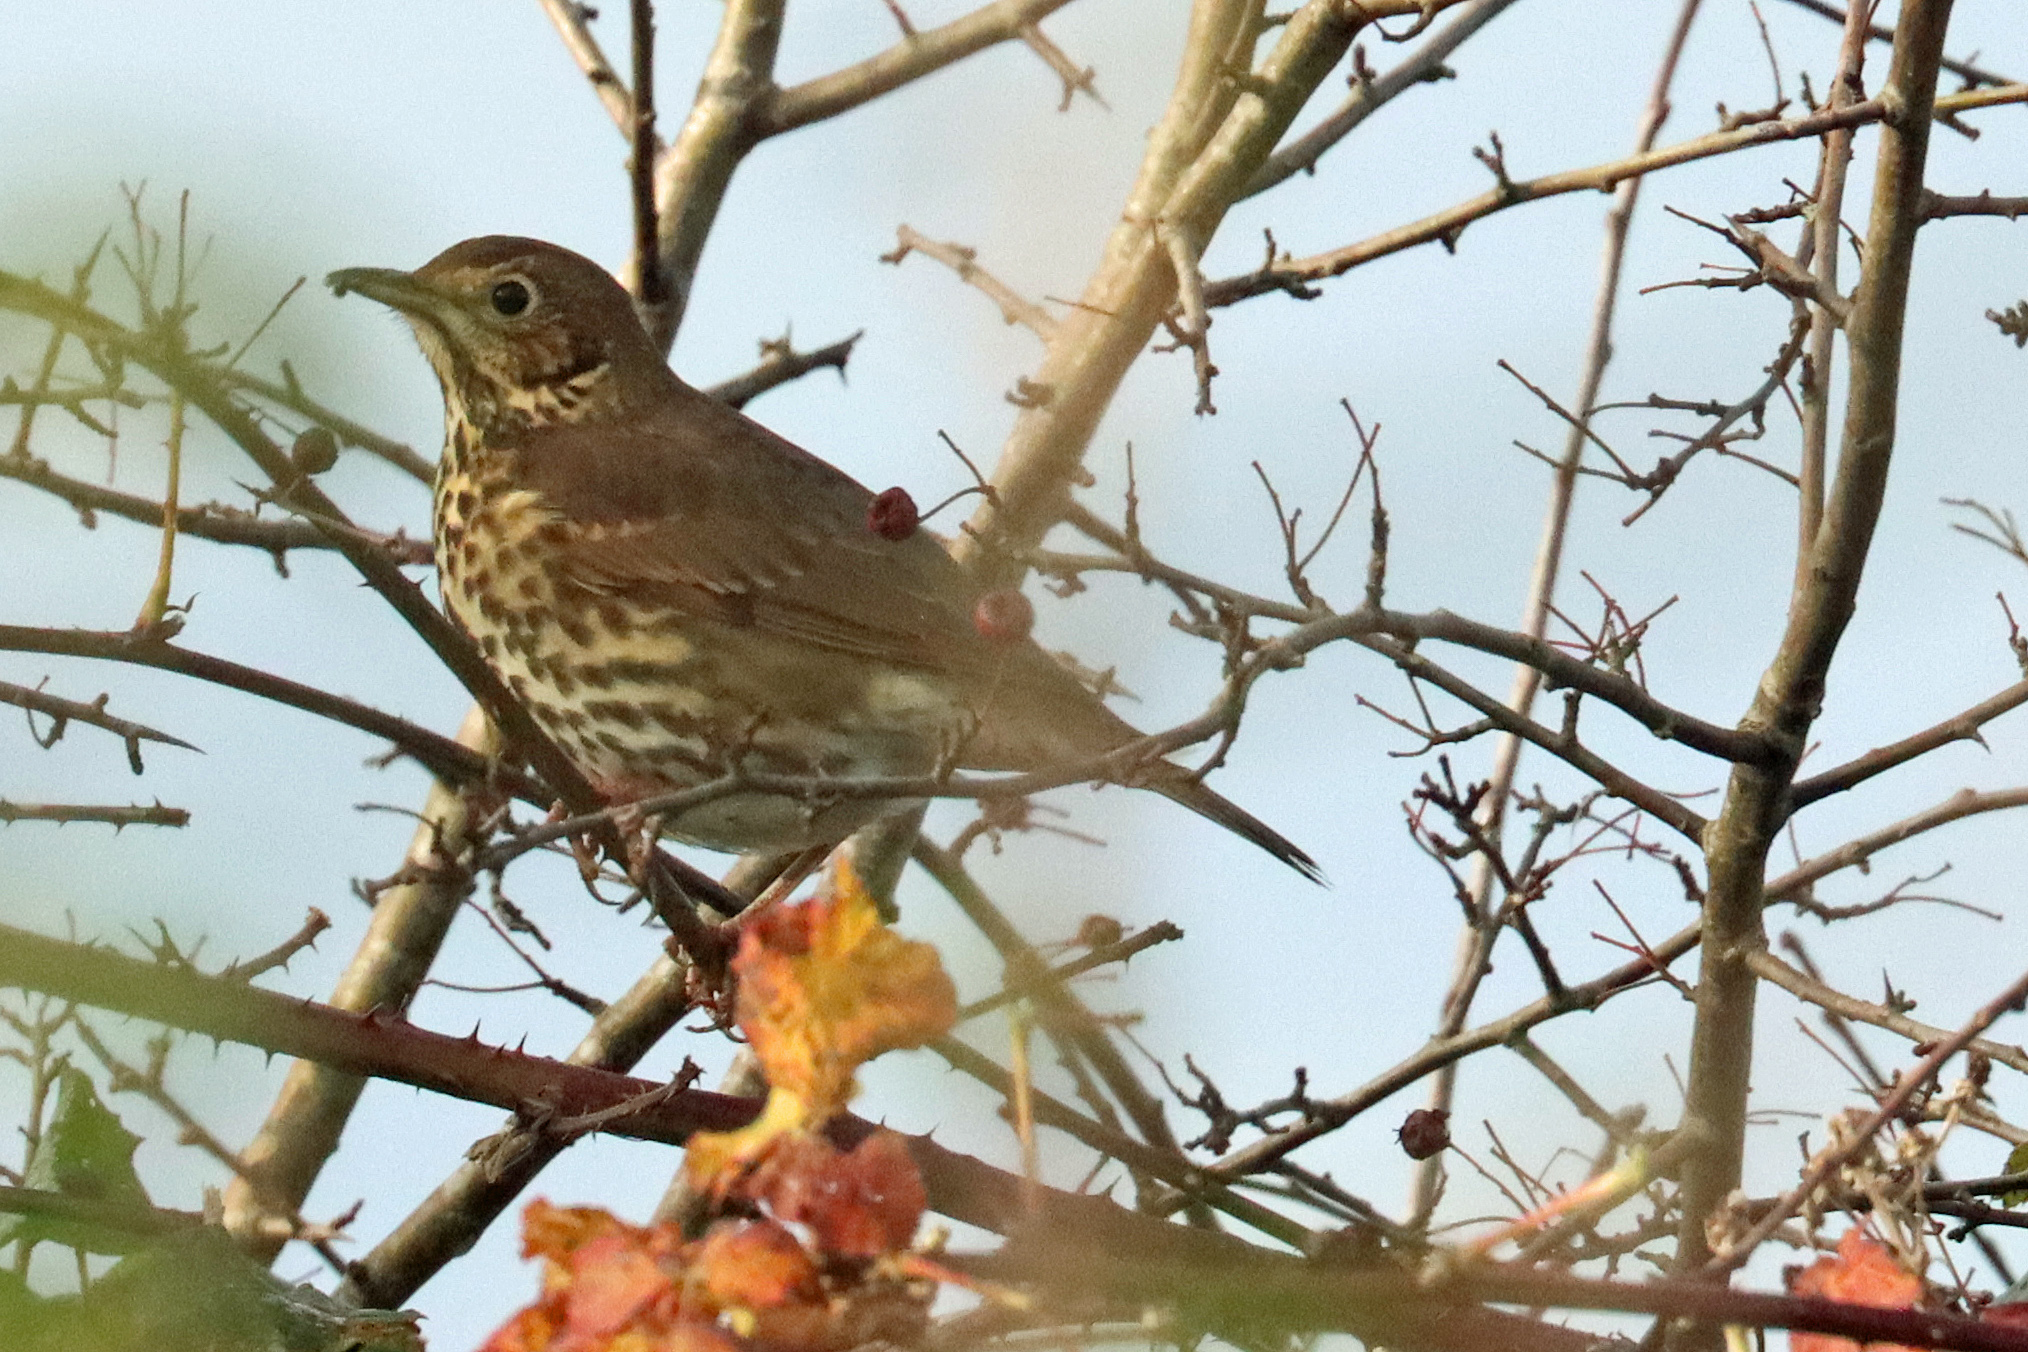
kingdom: Animalia
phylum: Chordata
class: Aves
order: Passeriformes
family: Turdidae
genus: Turdus
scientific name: Turdus philomelos
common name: Song thrush
